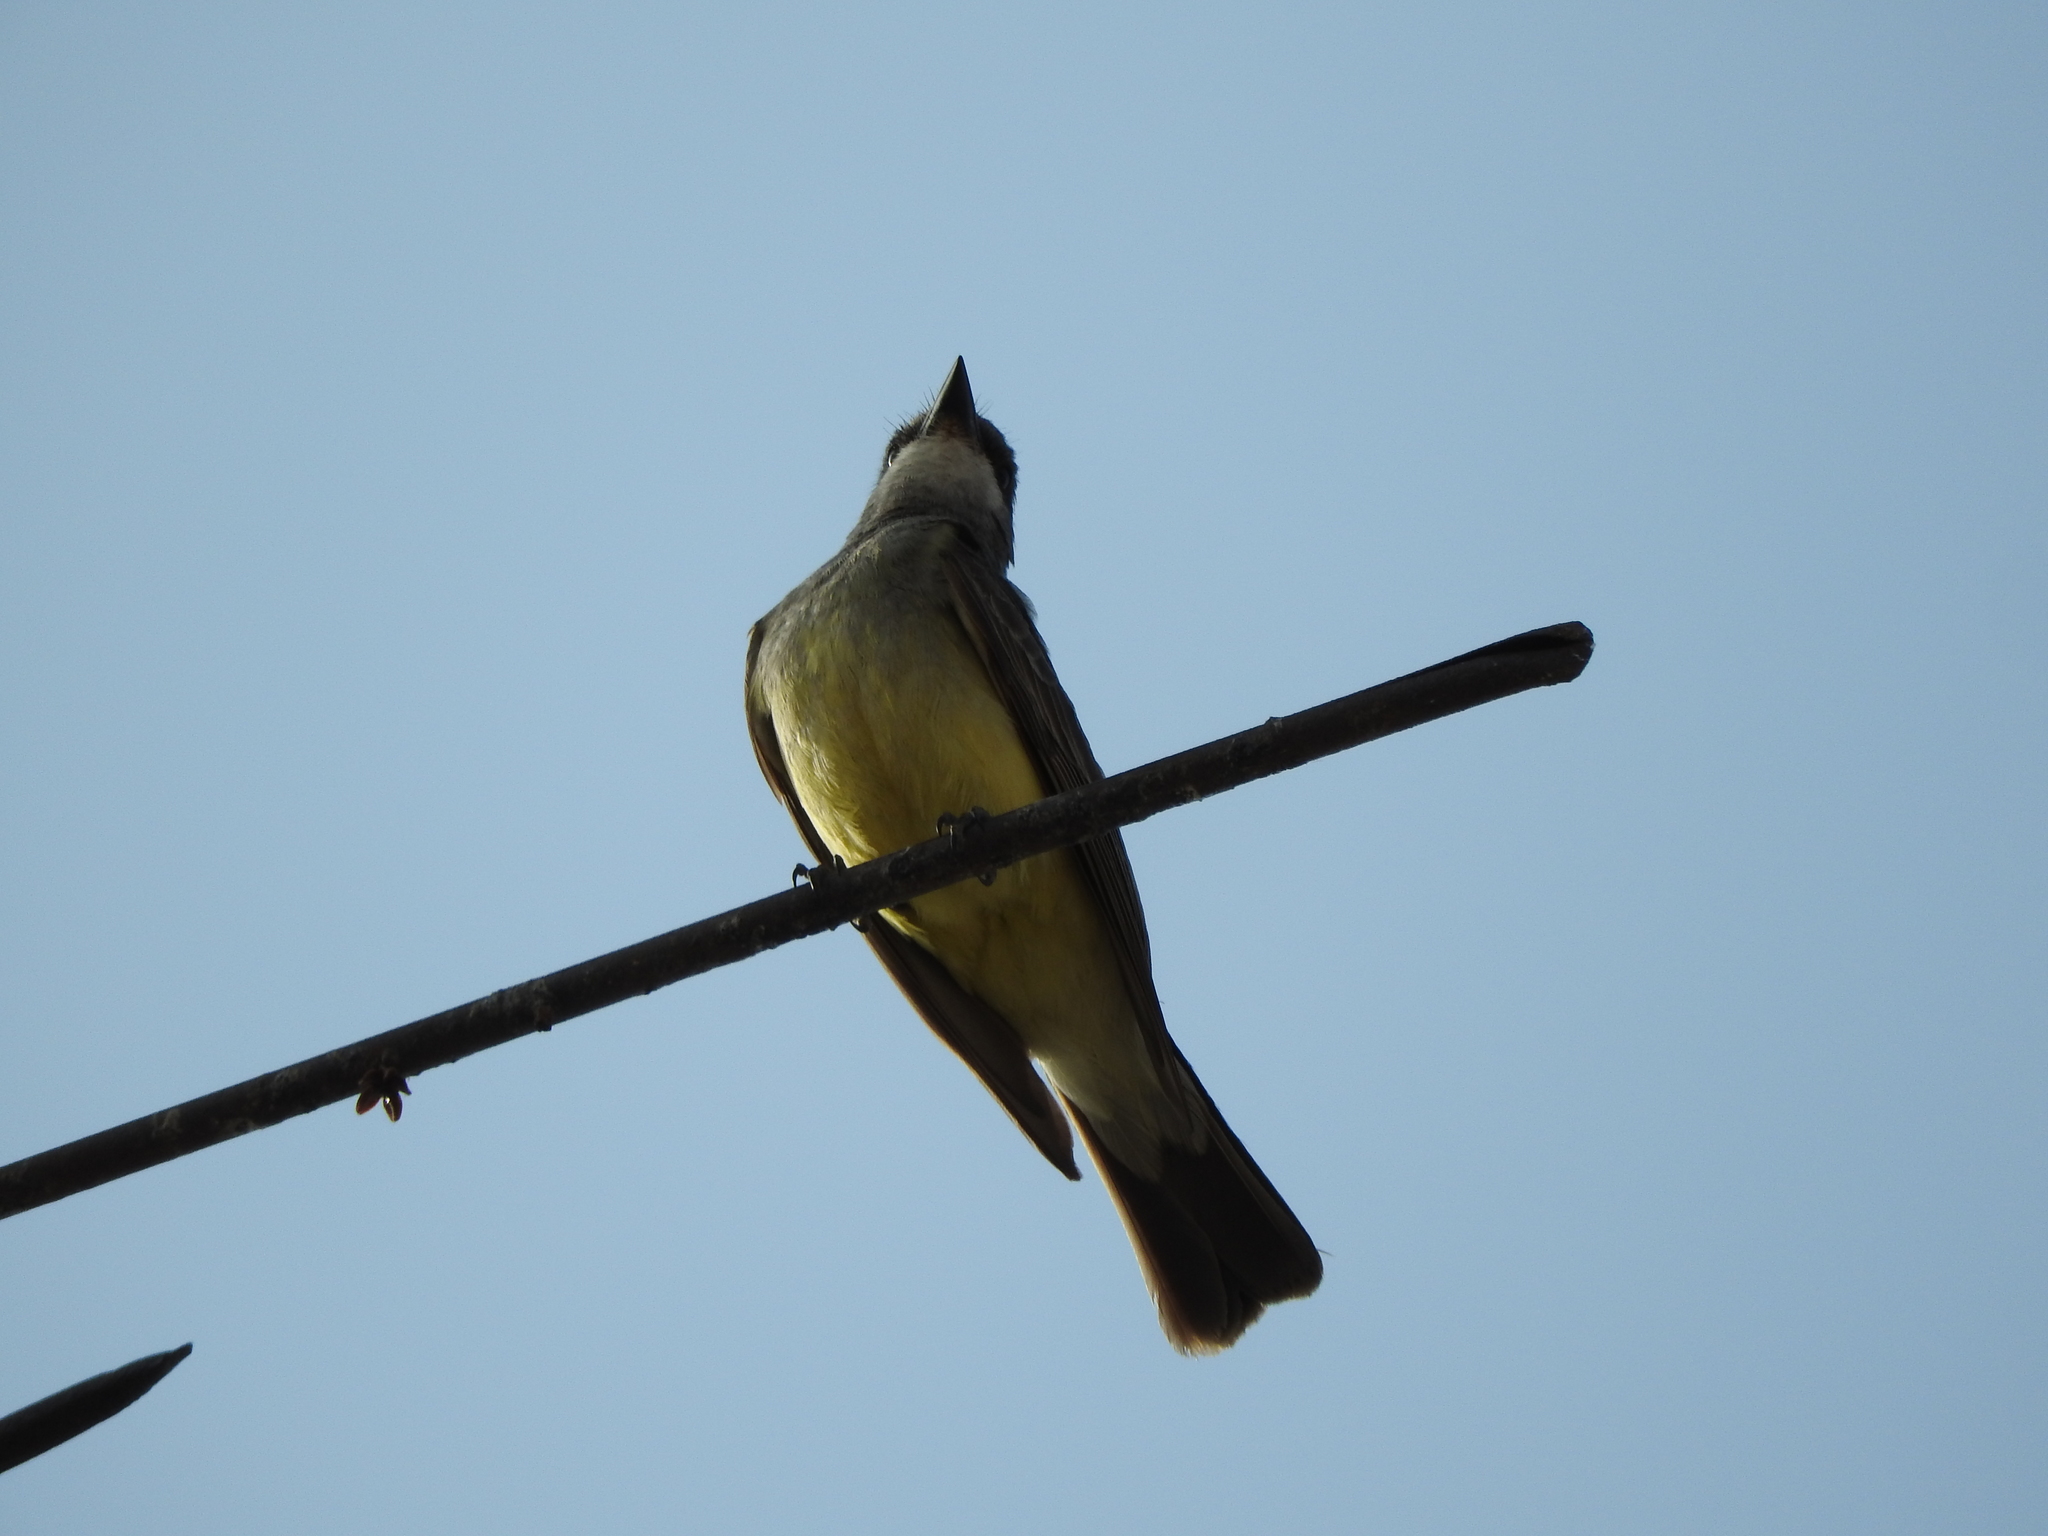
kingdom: Animalia
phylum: Chordata
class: Aves
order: Passeriformes
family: Tyrannidae
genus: Tyrannus
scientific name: Tyrannus vociferans
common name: Cassin's kingbird
